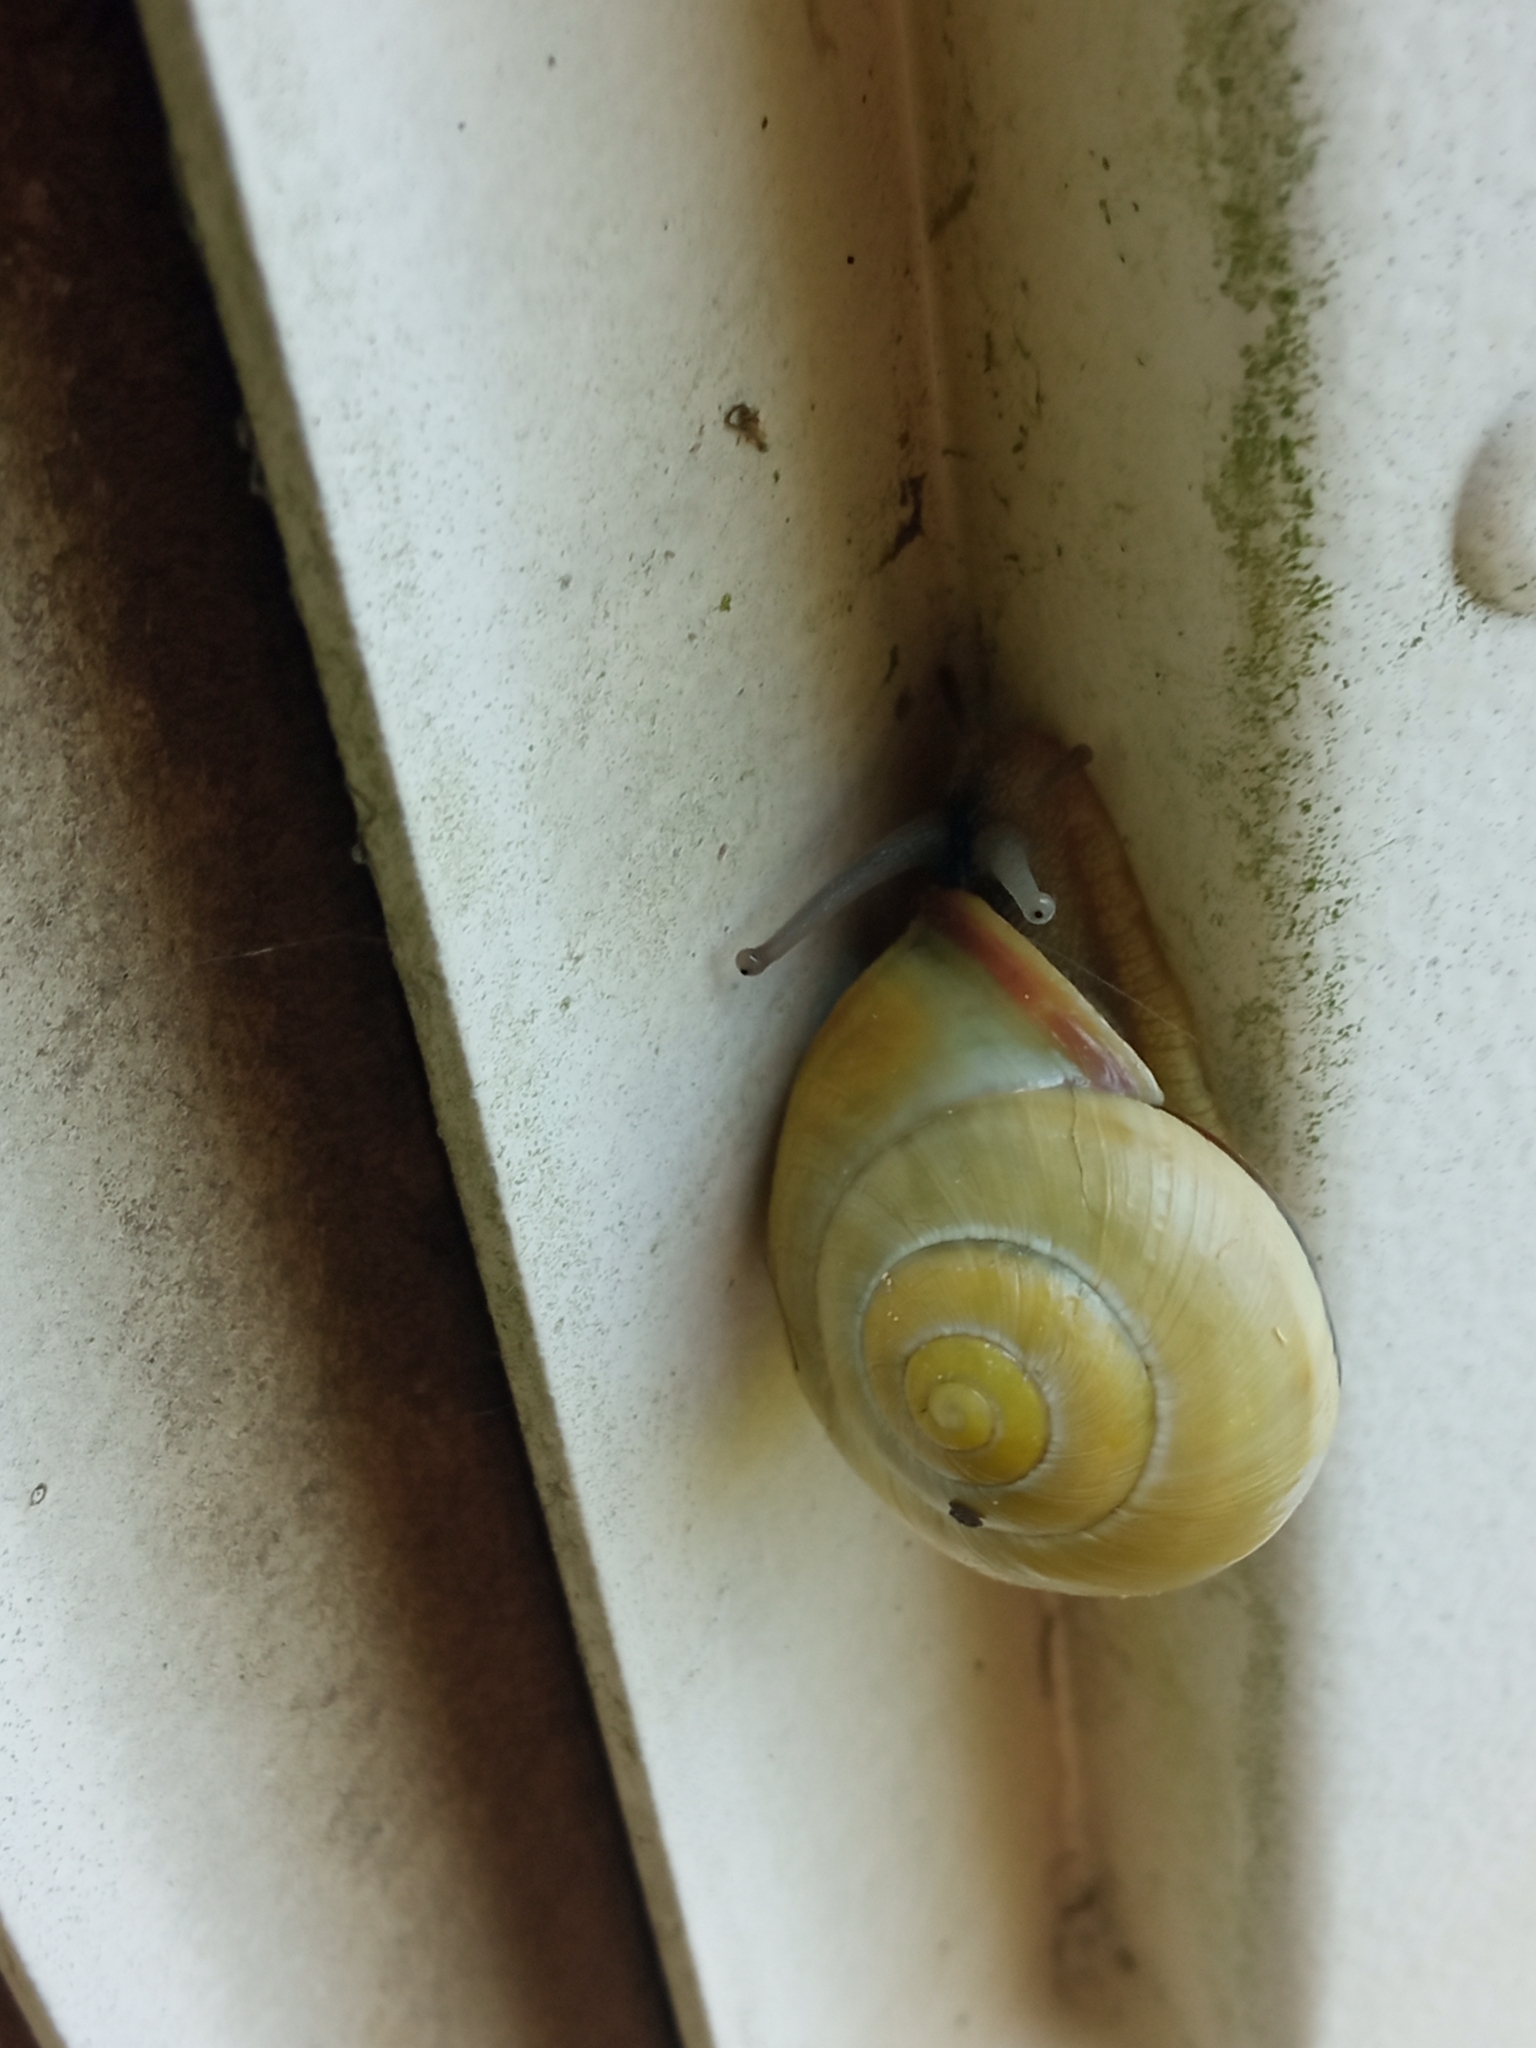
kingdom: Animalia
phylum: Mollusca
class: Gastropoda
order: Stylommatophora
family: Helicidae
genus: Cepaea
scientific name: Cepaea nemoralis
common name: Grovesnail
